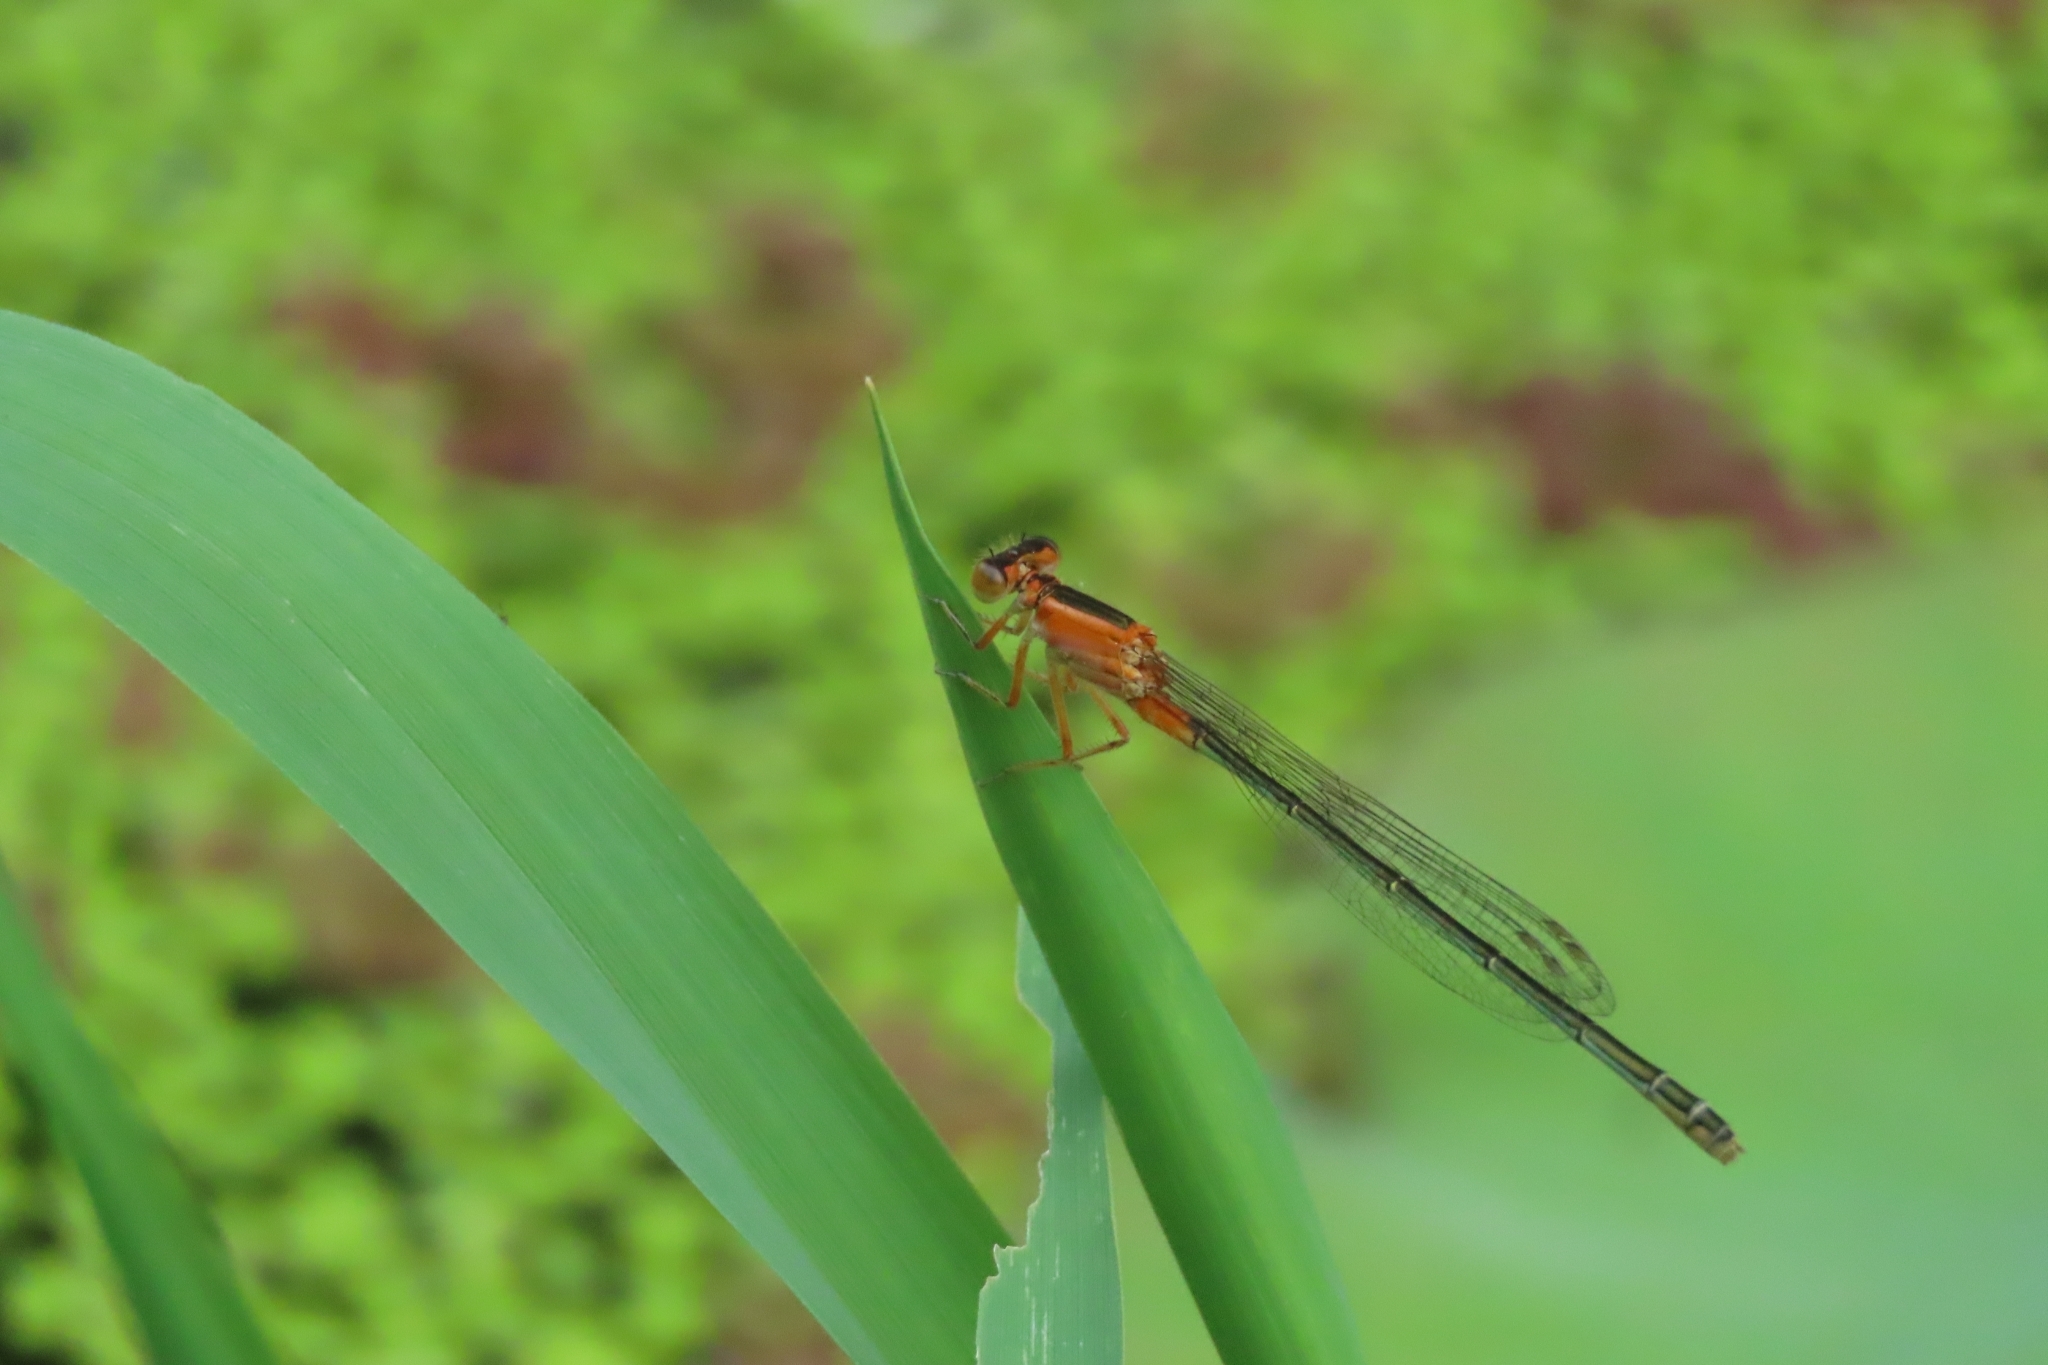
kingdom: Animalia
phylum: Arthropoda
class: Insecta
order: Odonata
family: Coenagrionidae
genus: Ischnura
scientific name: Ischnura senegalensis
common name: Tropical bluetail
